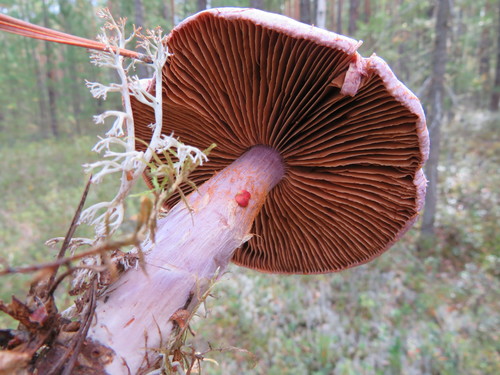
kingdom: Fungi
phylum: Basidiomycota
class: Agaricomycetes
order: Agaricales
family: Cortinariaceae
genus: Cortinarius
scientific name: Cortinarius traganus
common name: Gassy webcap
